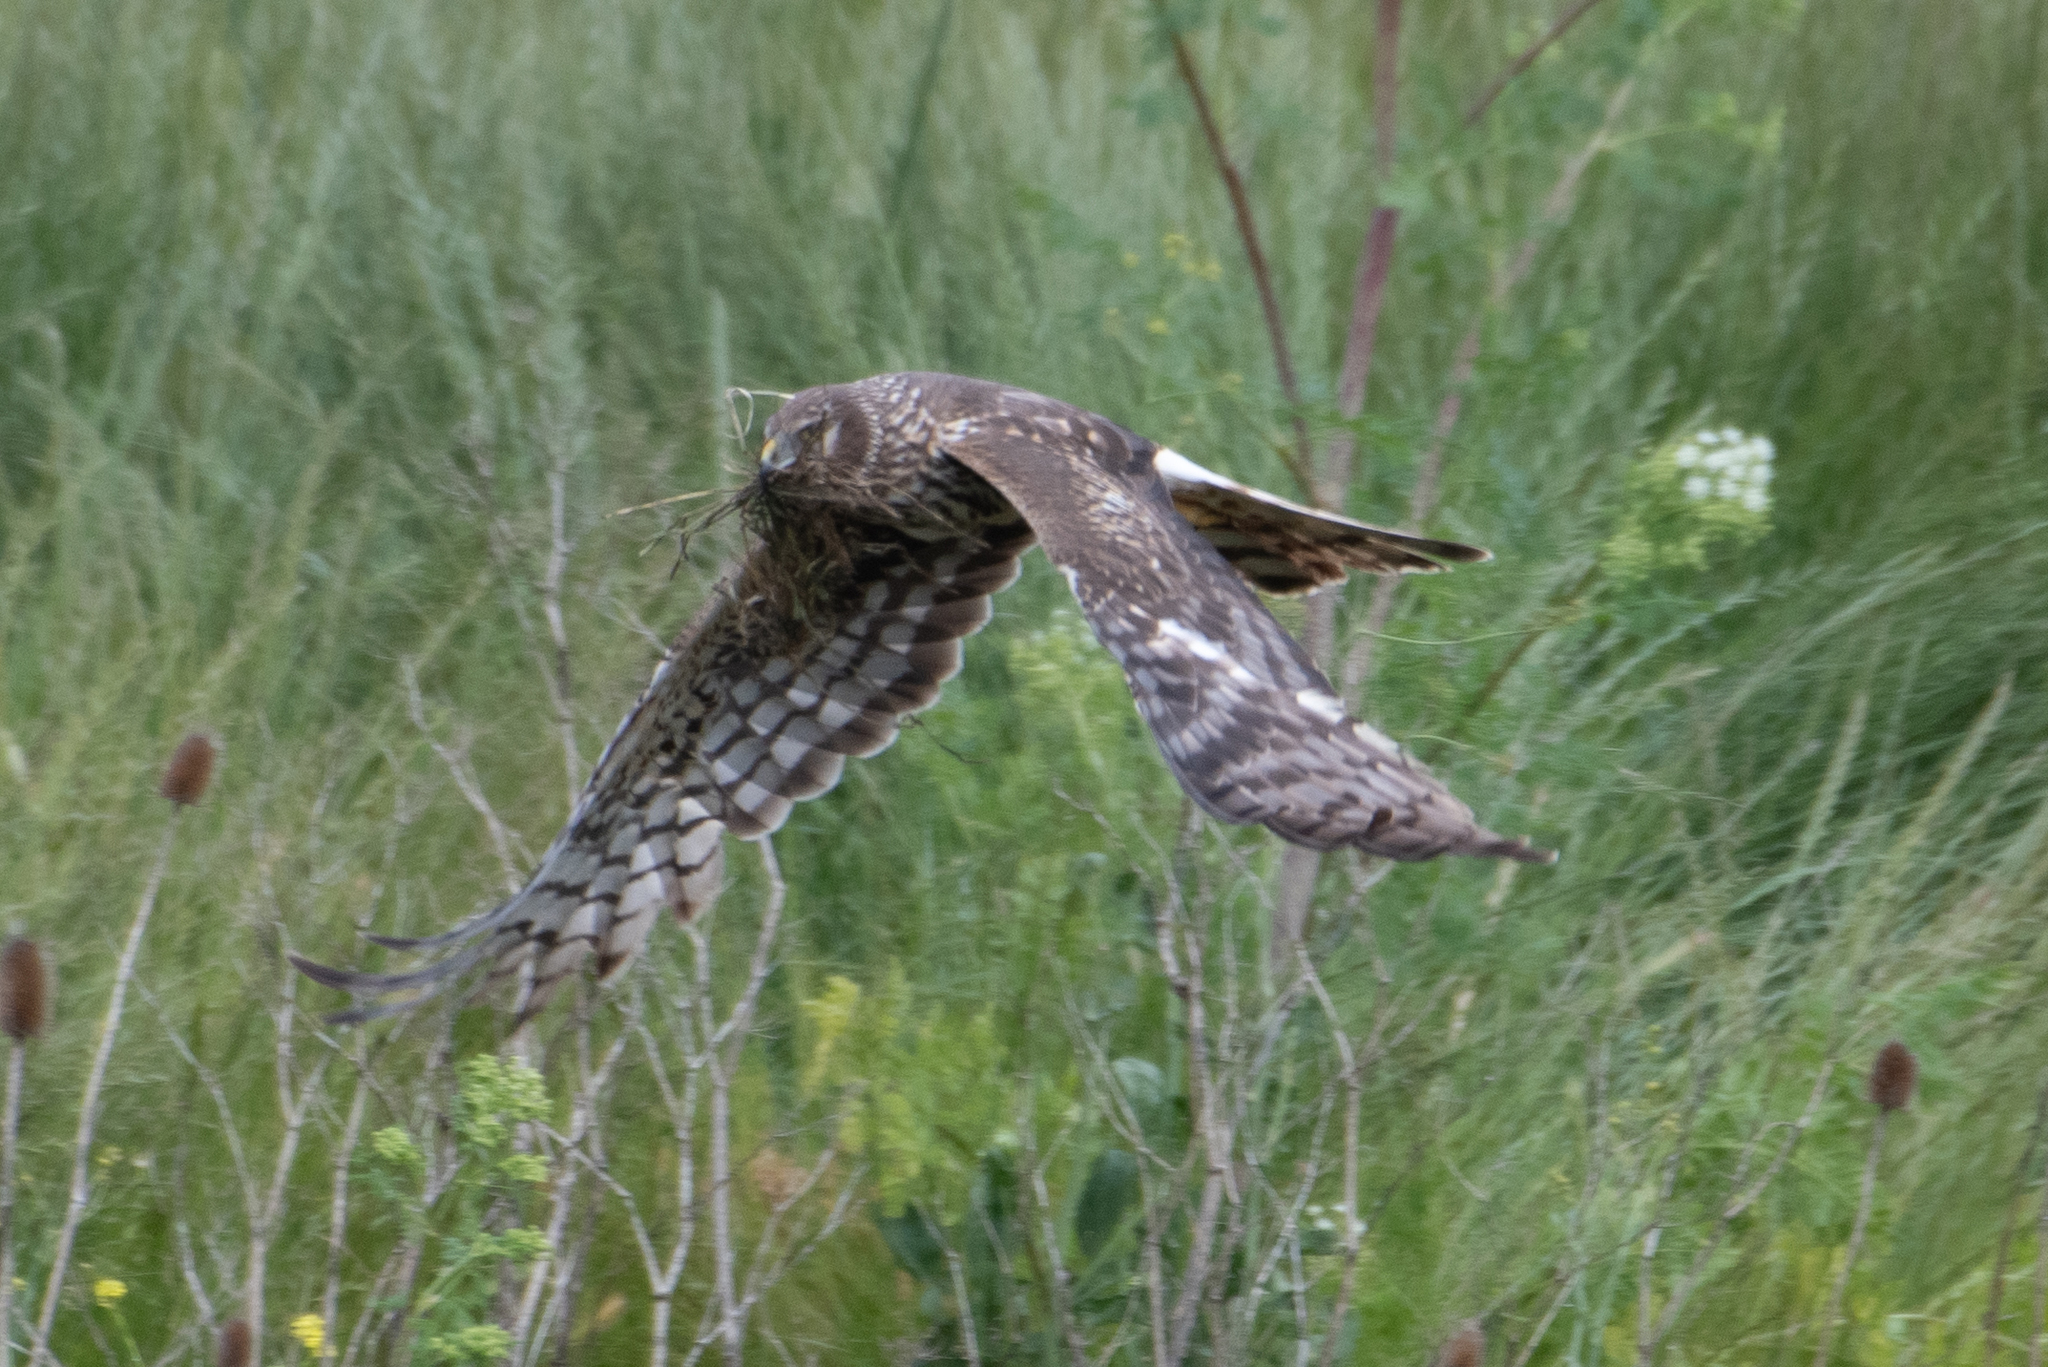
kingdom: Animalia
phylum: Chordata
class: Aves
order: Accipitriformes
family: Accipitridae
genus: Circus
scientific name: Circus cyaneus
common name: Hen harrier
